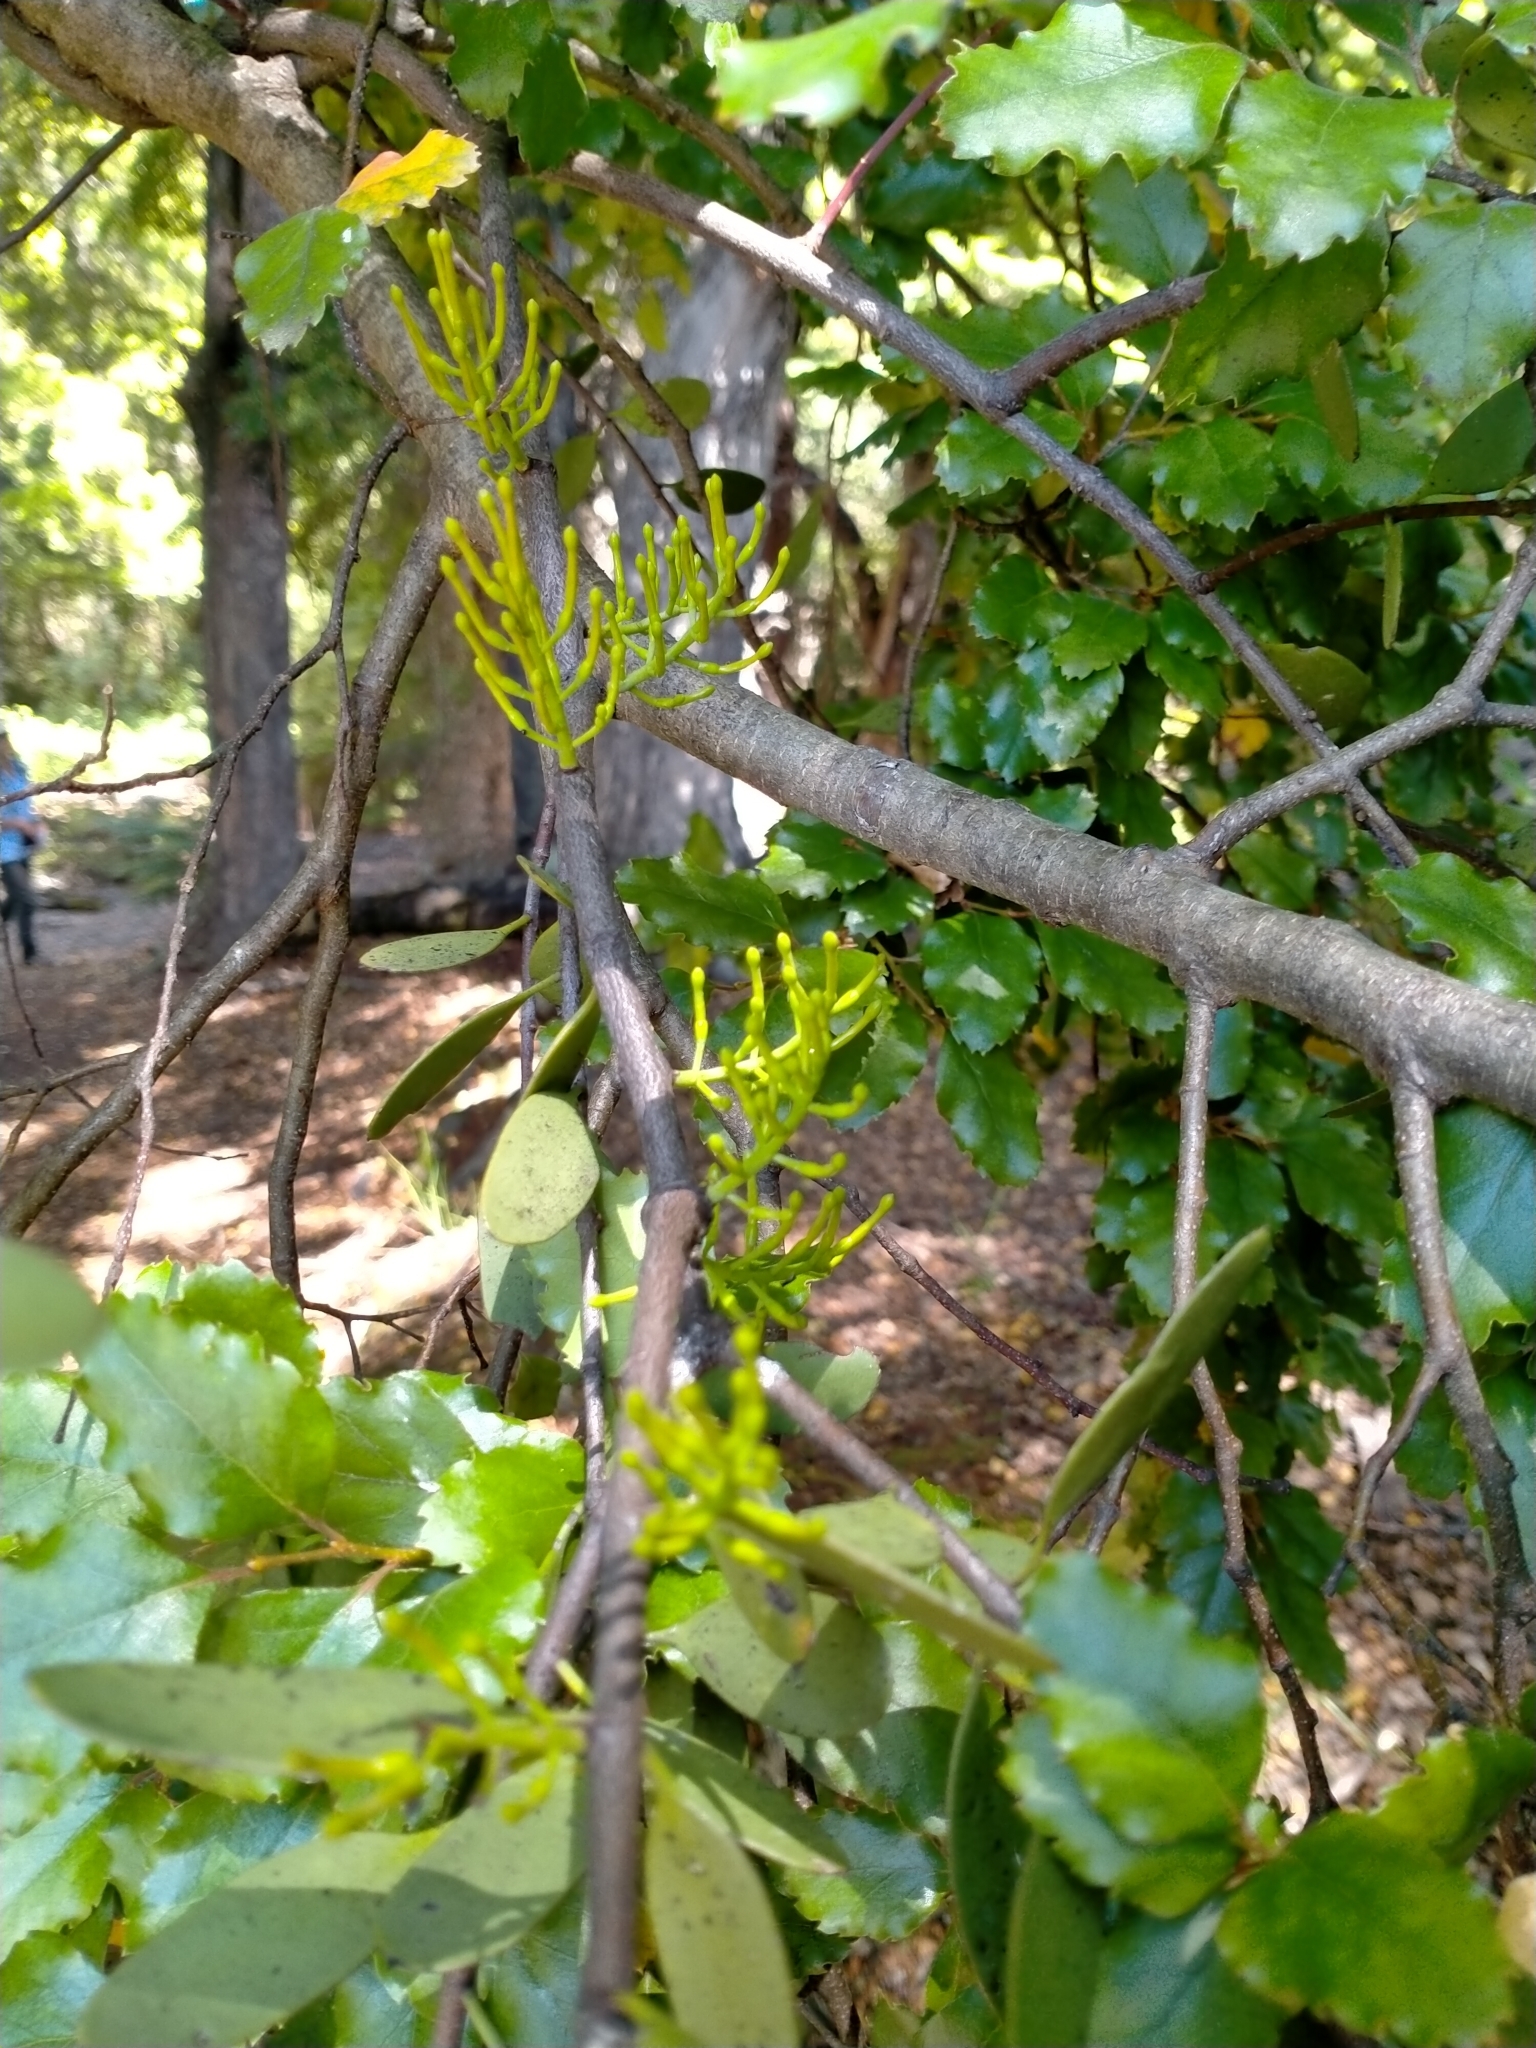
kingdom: Plantae
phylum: Tracheophyta
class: Magnoliopsida
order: Santalales
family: Loranthaceae
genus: Alepis
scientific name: Alepis flavida
